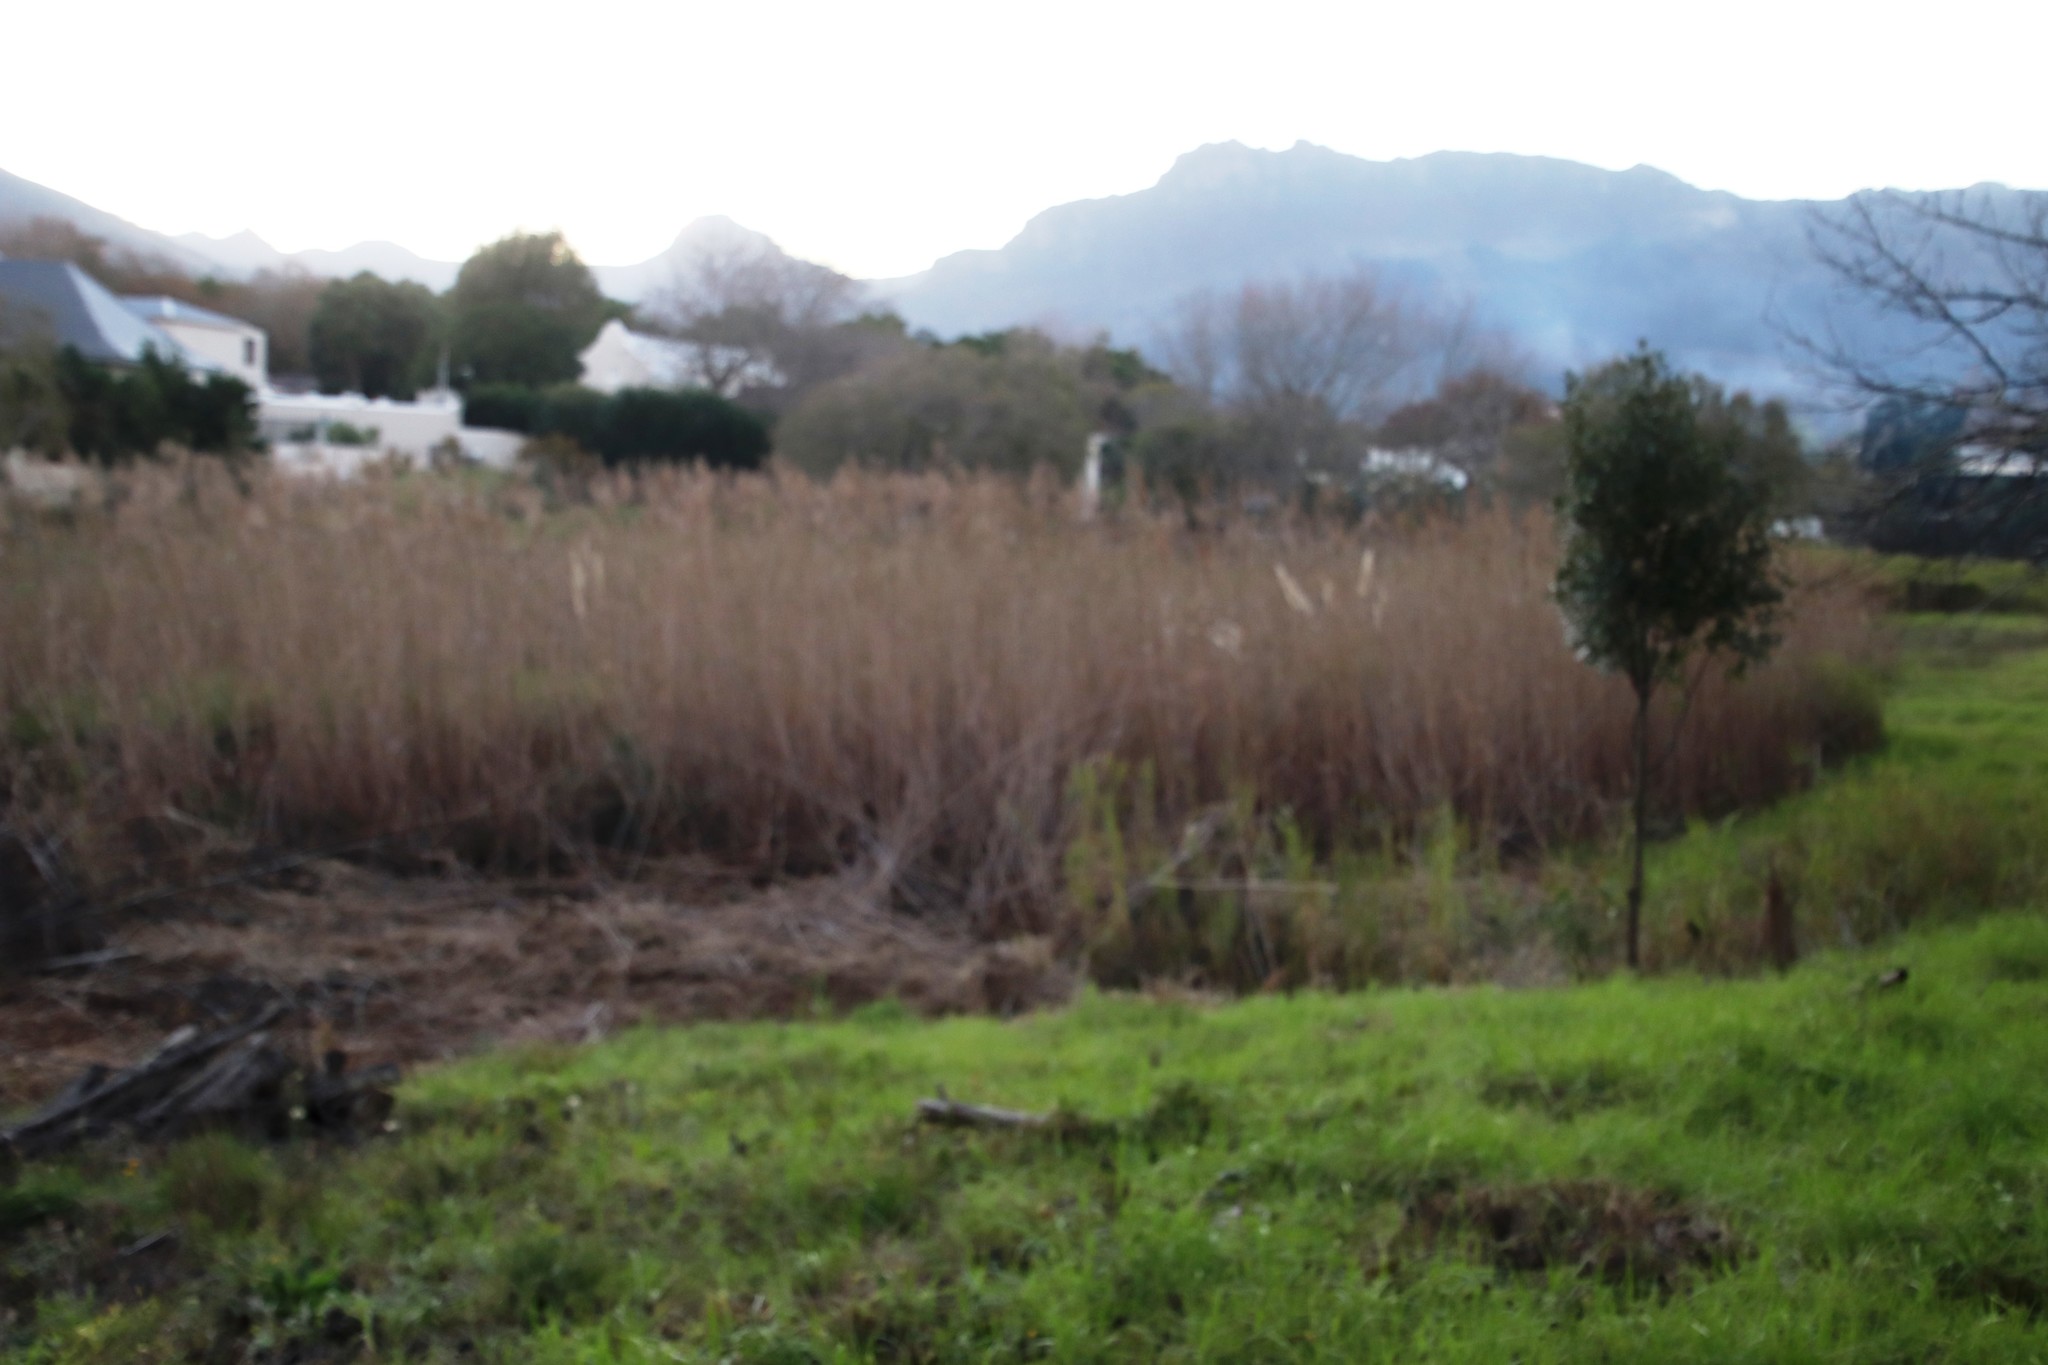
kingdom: Plantae
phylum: Tracheophyta
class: Liliopsida
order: Poales
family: Poaceae
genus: Phragmites
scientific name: Phragmites australis
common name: Common reed
